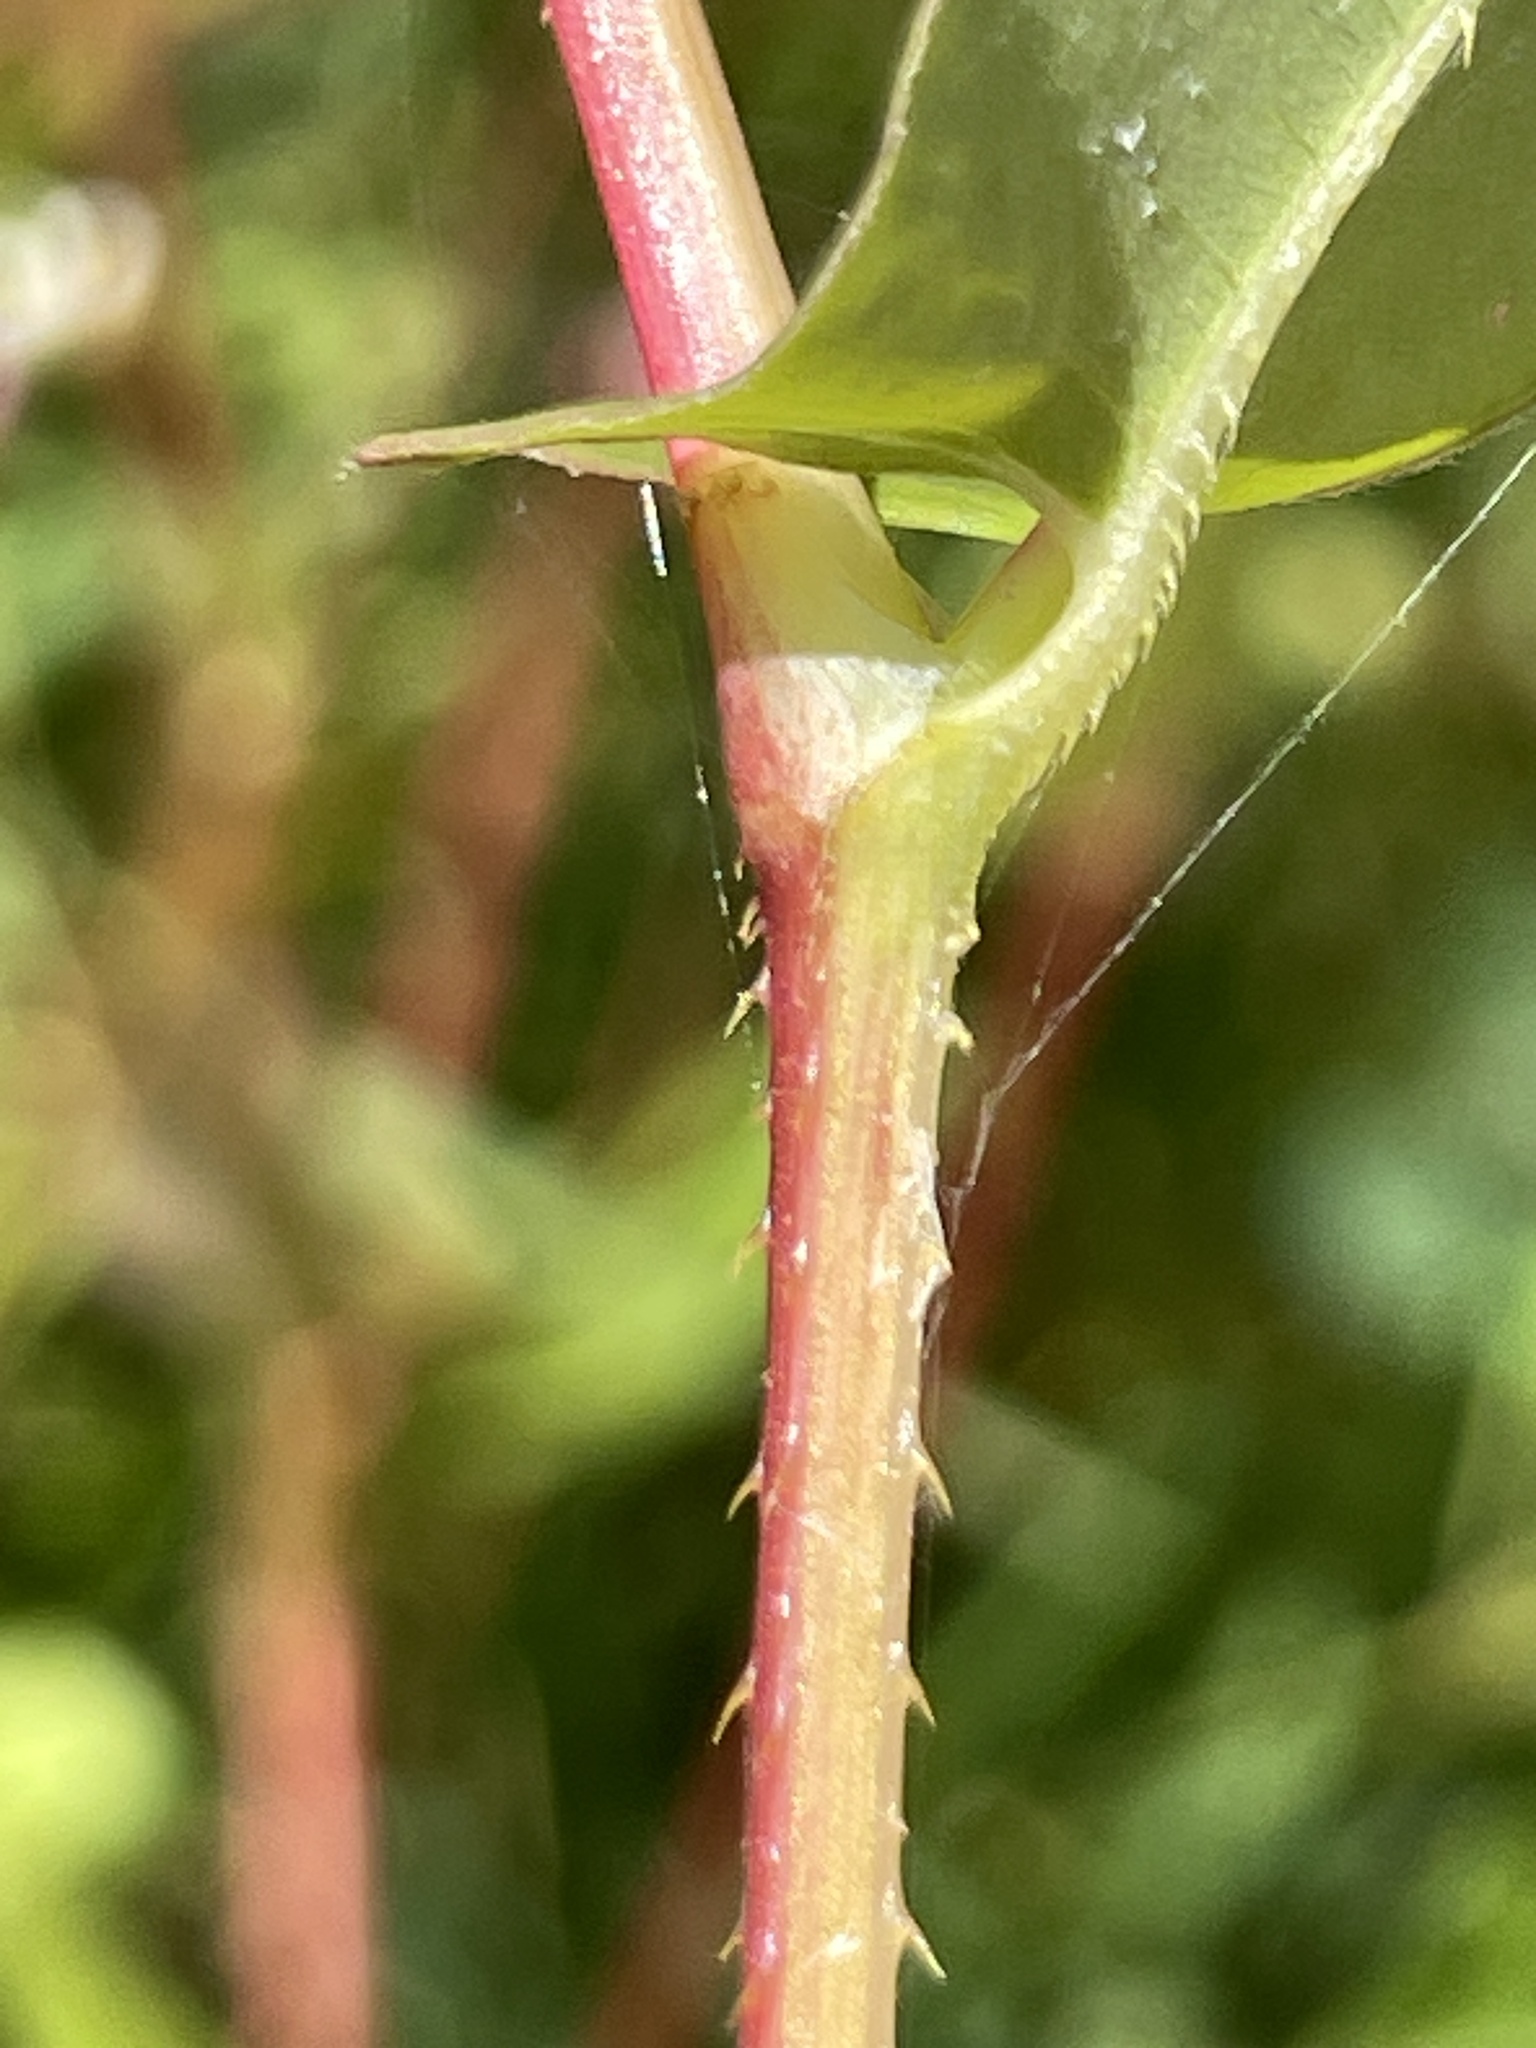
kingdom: Plantae
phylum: Tracheophyta
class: Magnoliopsida
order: Caryophyllales
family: Polygonaceae
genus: Persicaria
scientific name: Persicaria sagittata
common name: American tearthumb
